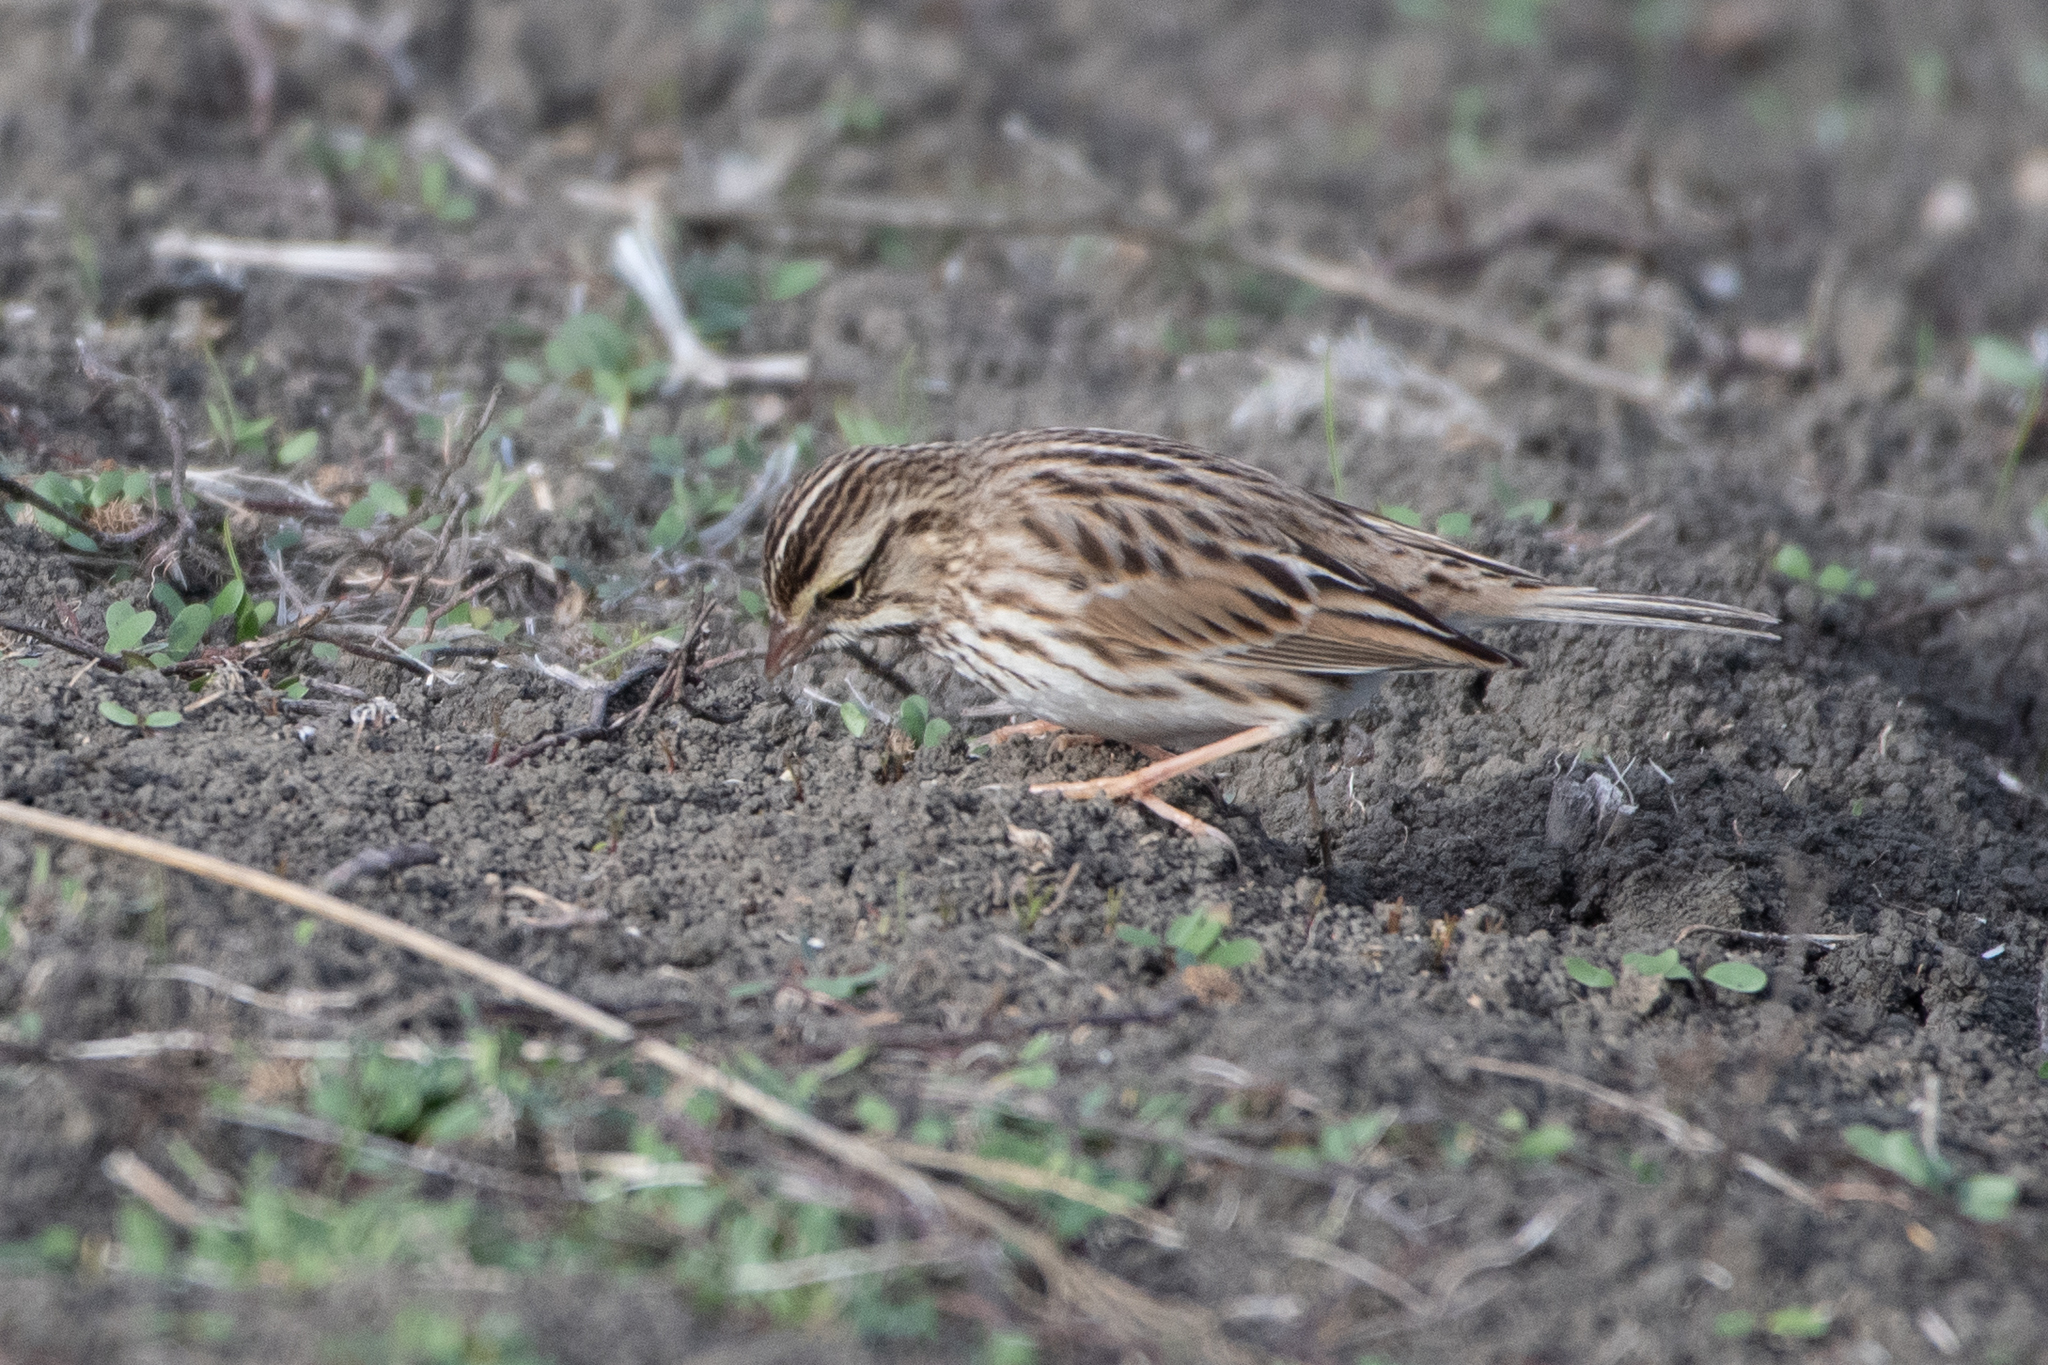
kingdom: Animalia
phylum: Chordata
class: Aves
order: Passeriformes
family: Passerellidae
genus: Passerculus
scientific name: Passerculus sandwichensis
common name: Savannah sparrow
